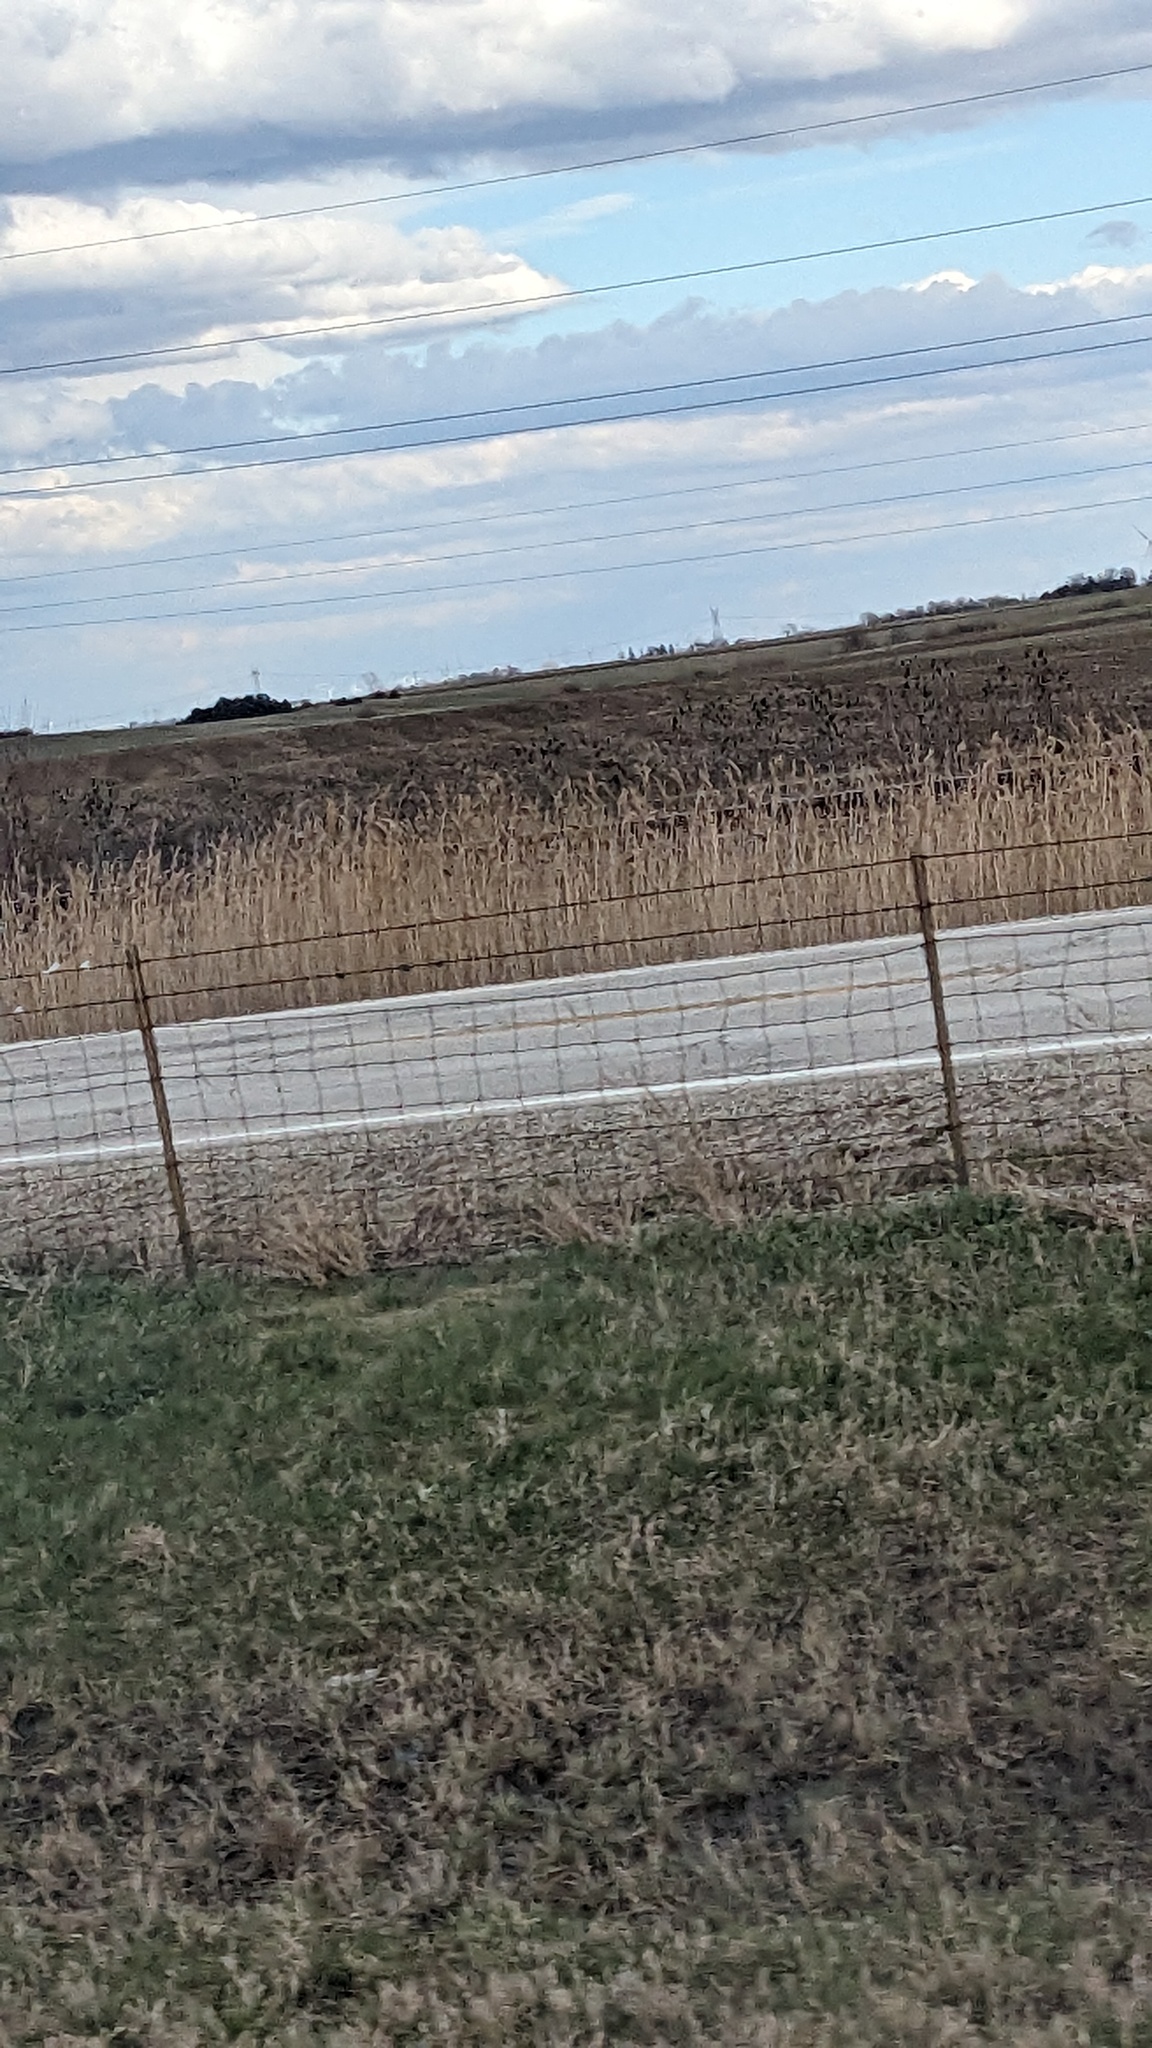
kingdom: Plantae
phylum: Tracheophyta
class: Liliopsida
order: Poales
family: Poaceae
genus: Phragmites
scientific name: Phragmites australis
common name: Common reed
